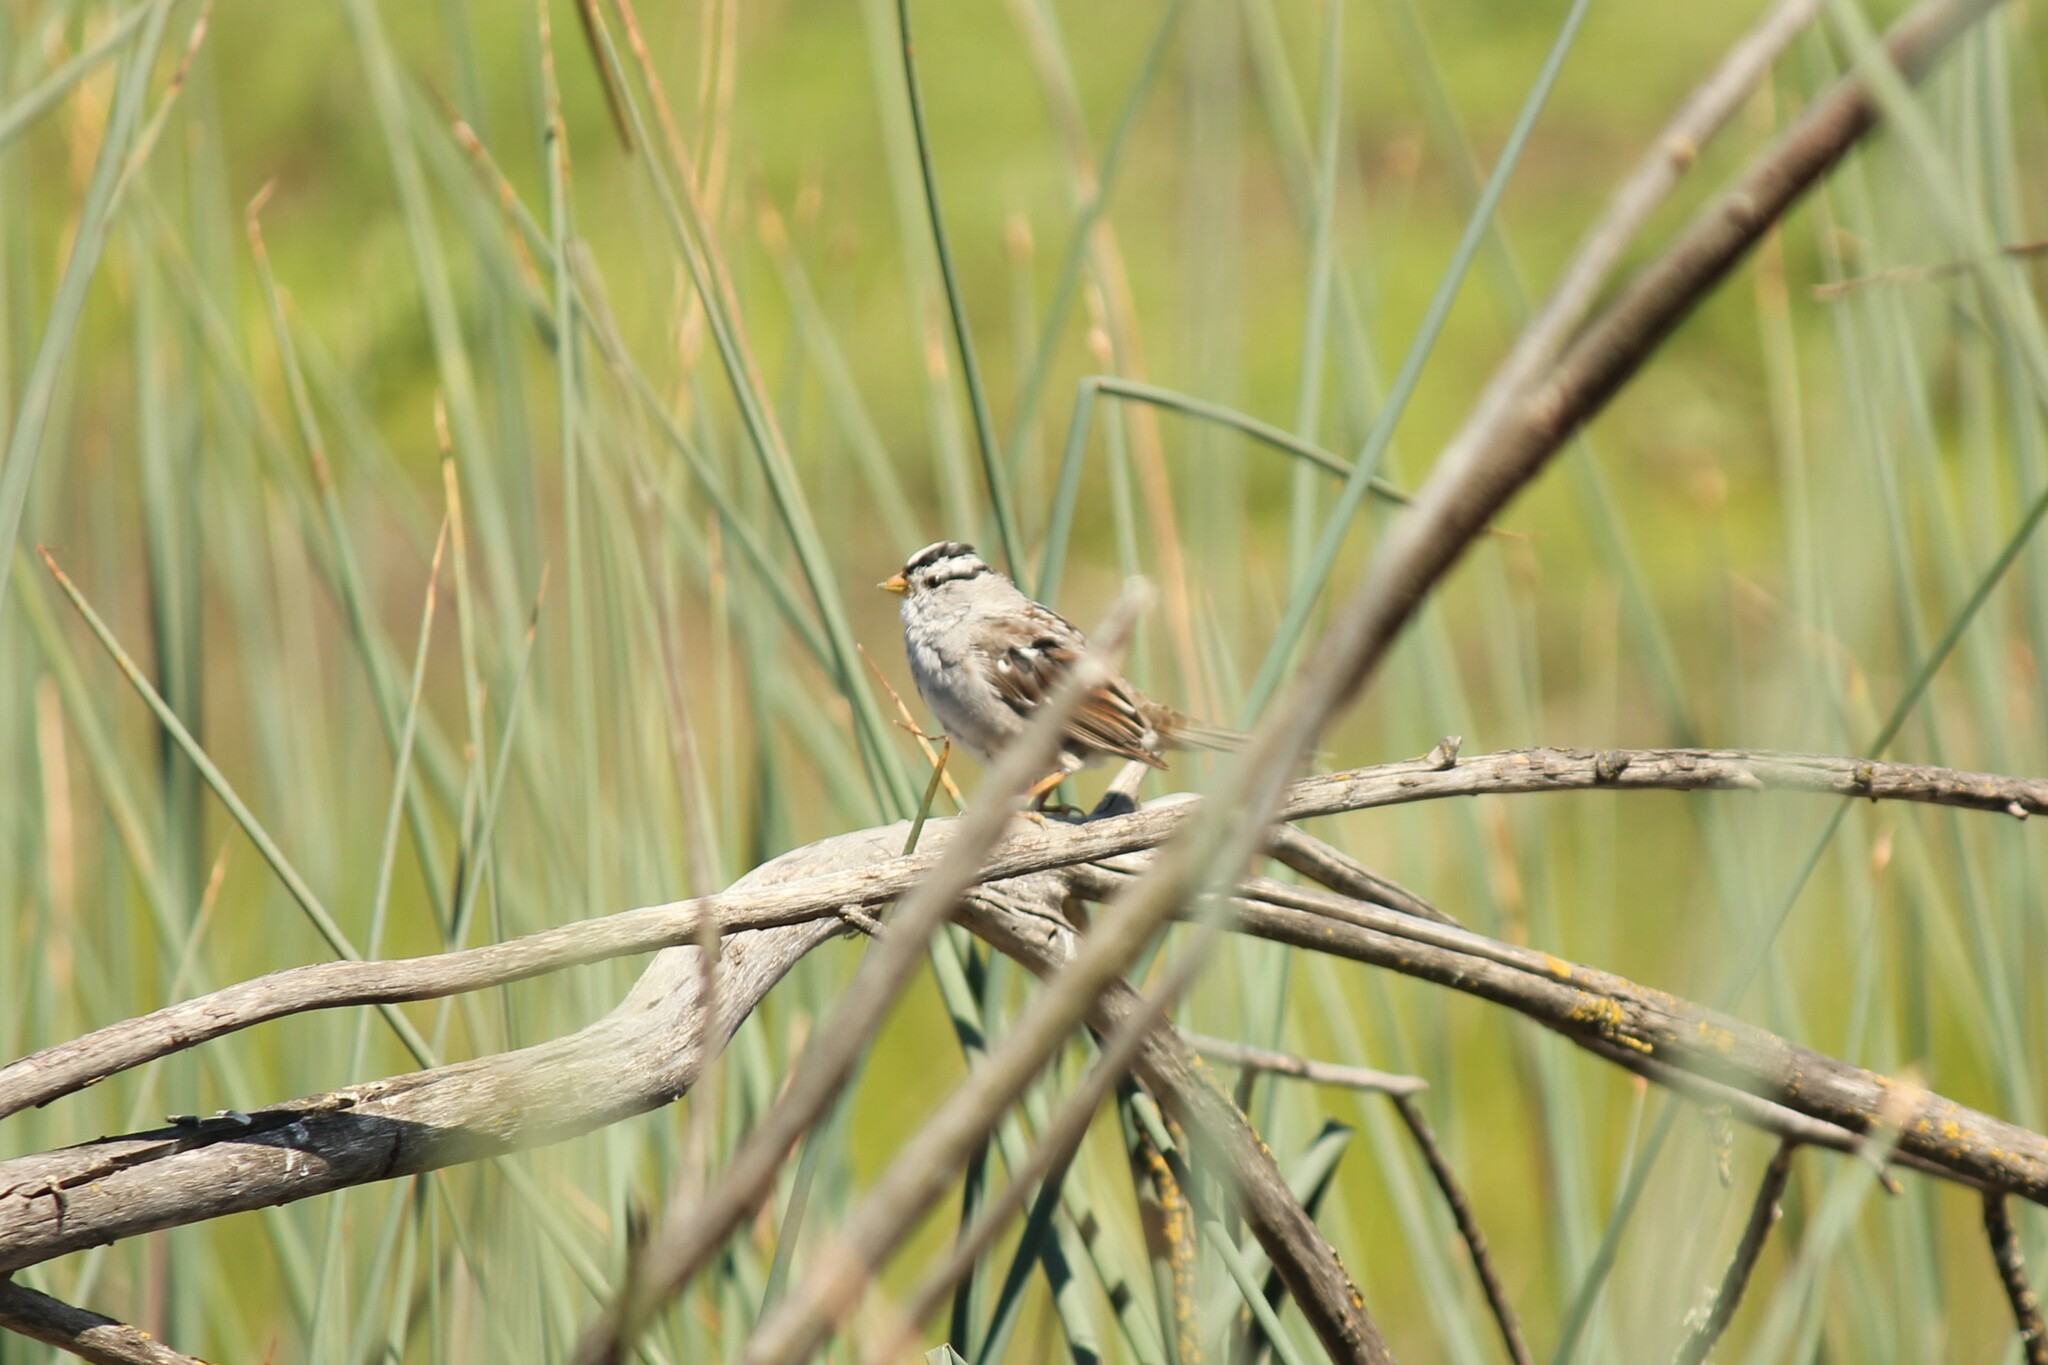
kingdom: Animalia
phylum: Chordata
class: Aves
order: Passeriformes
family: Passerellidae
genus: Zonotrichia
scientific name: Zonotrichia leucophrys
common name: White-crowned sparrow
